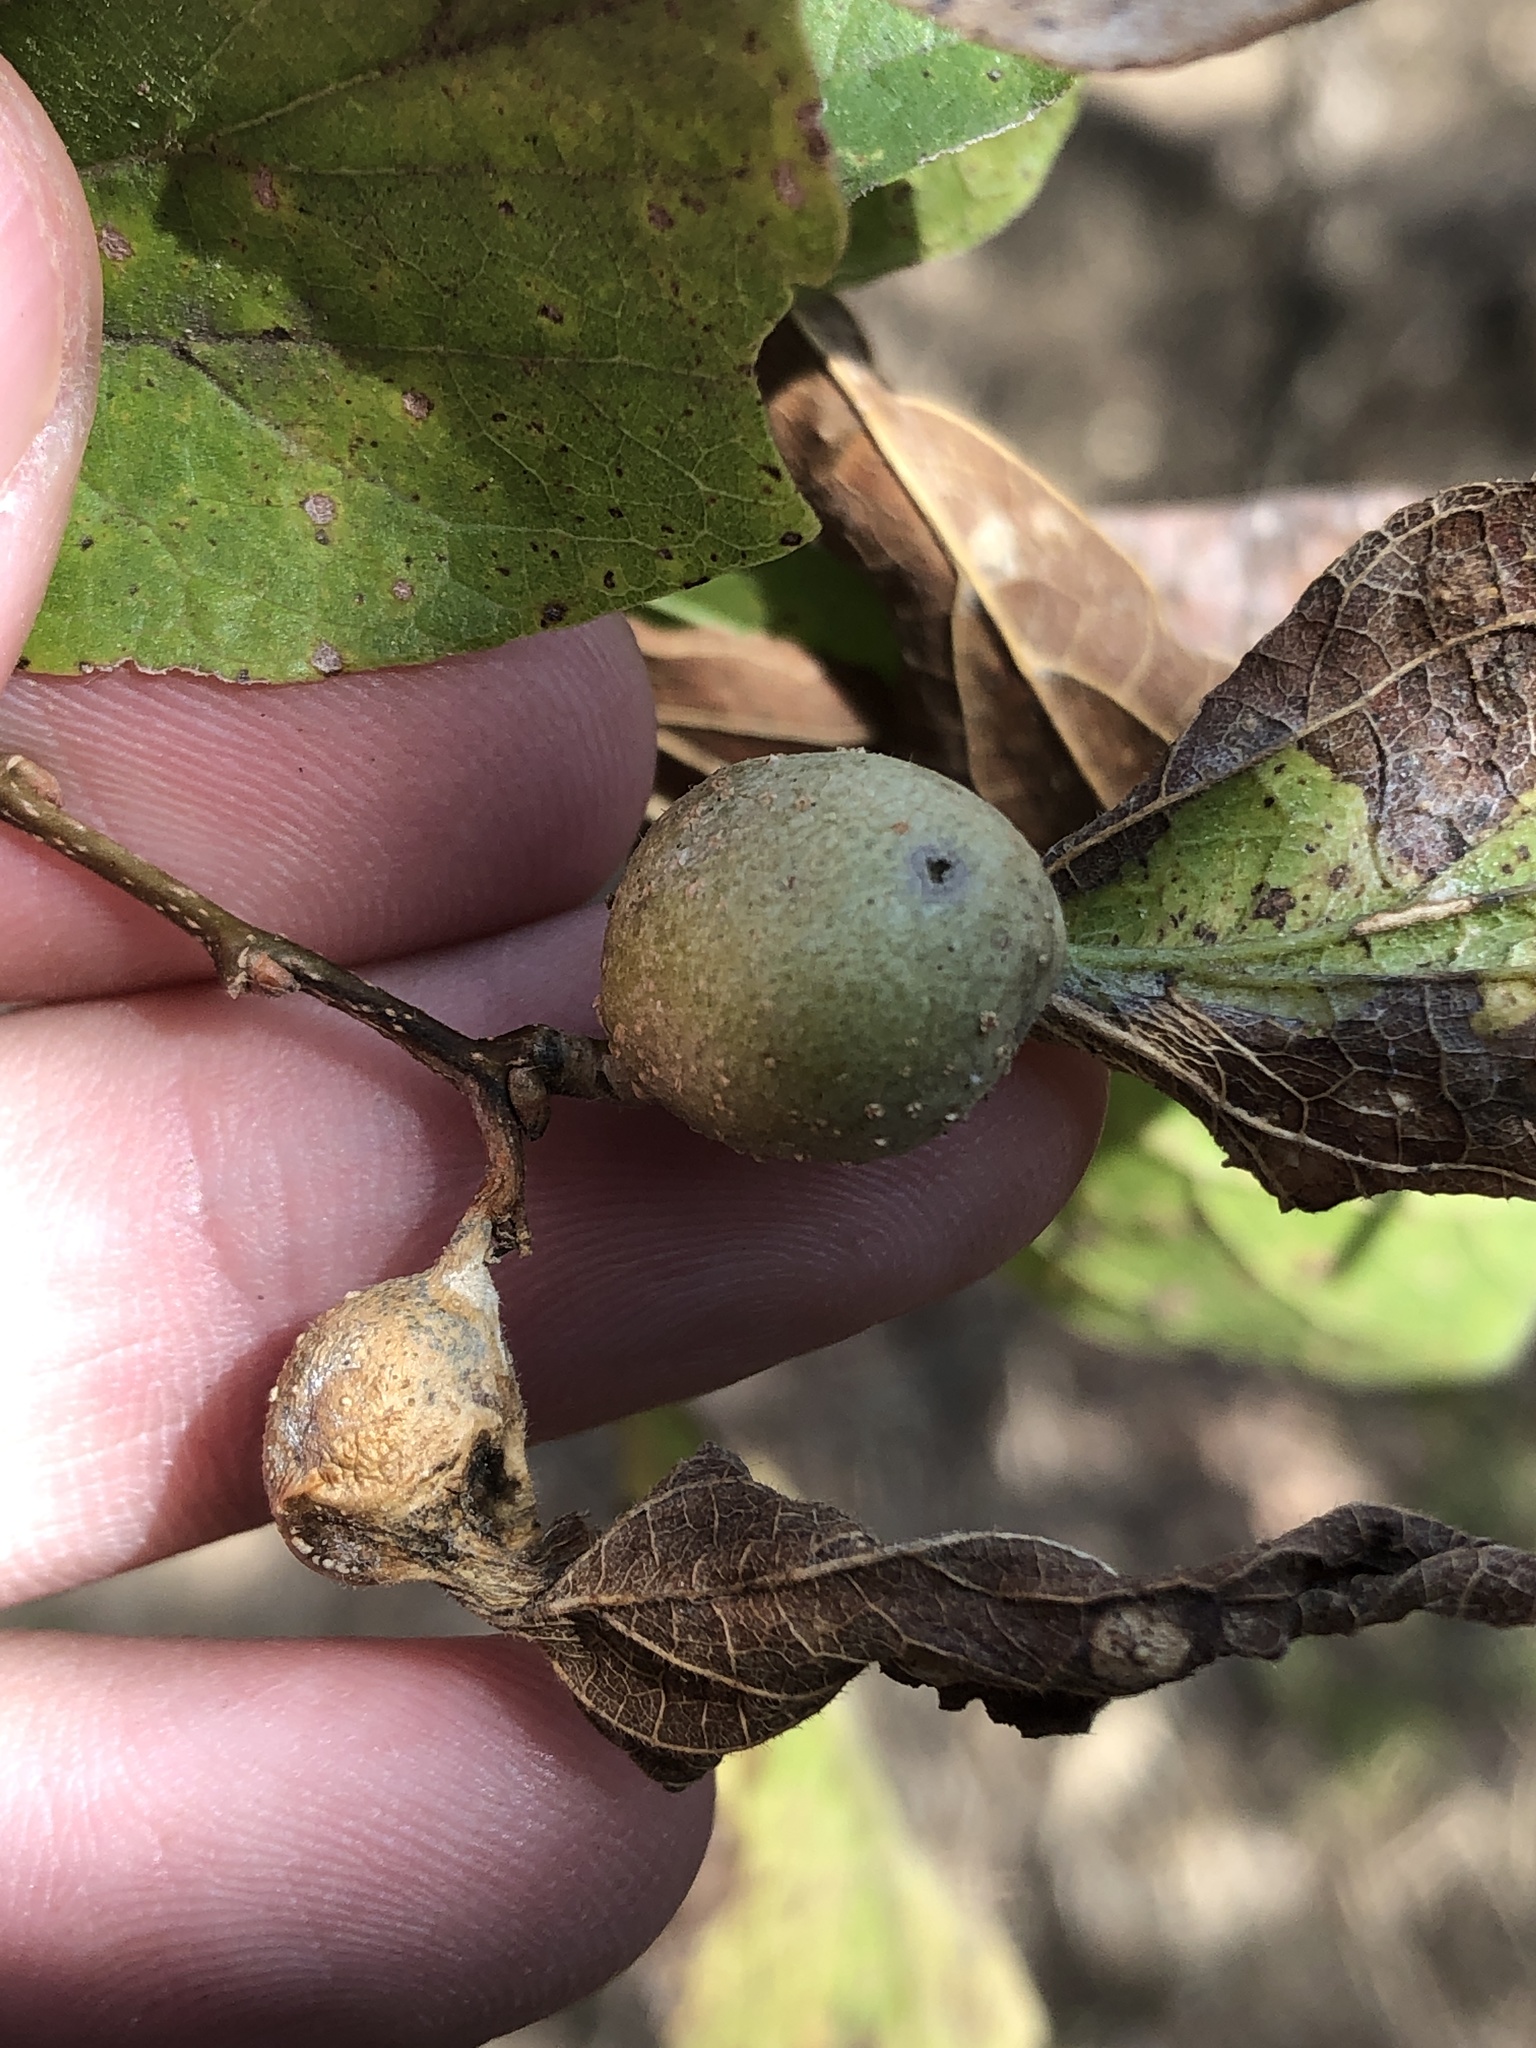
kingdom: Animalia
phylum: Arthropoda
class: Insecta
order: Hemiptera
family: Aphalaridae
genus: Pachypsylla
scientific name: Pachypsylla venusta
